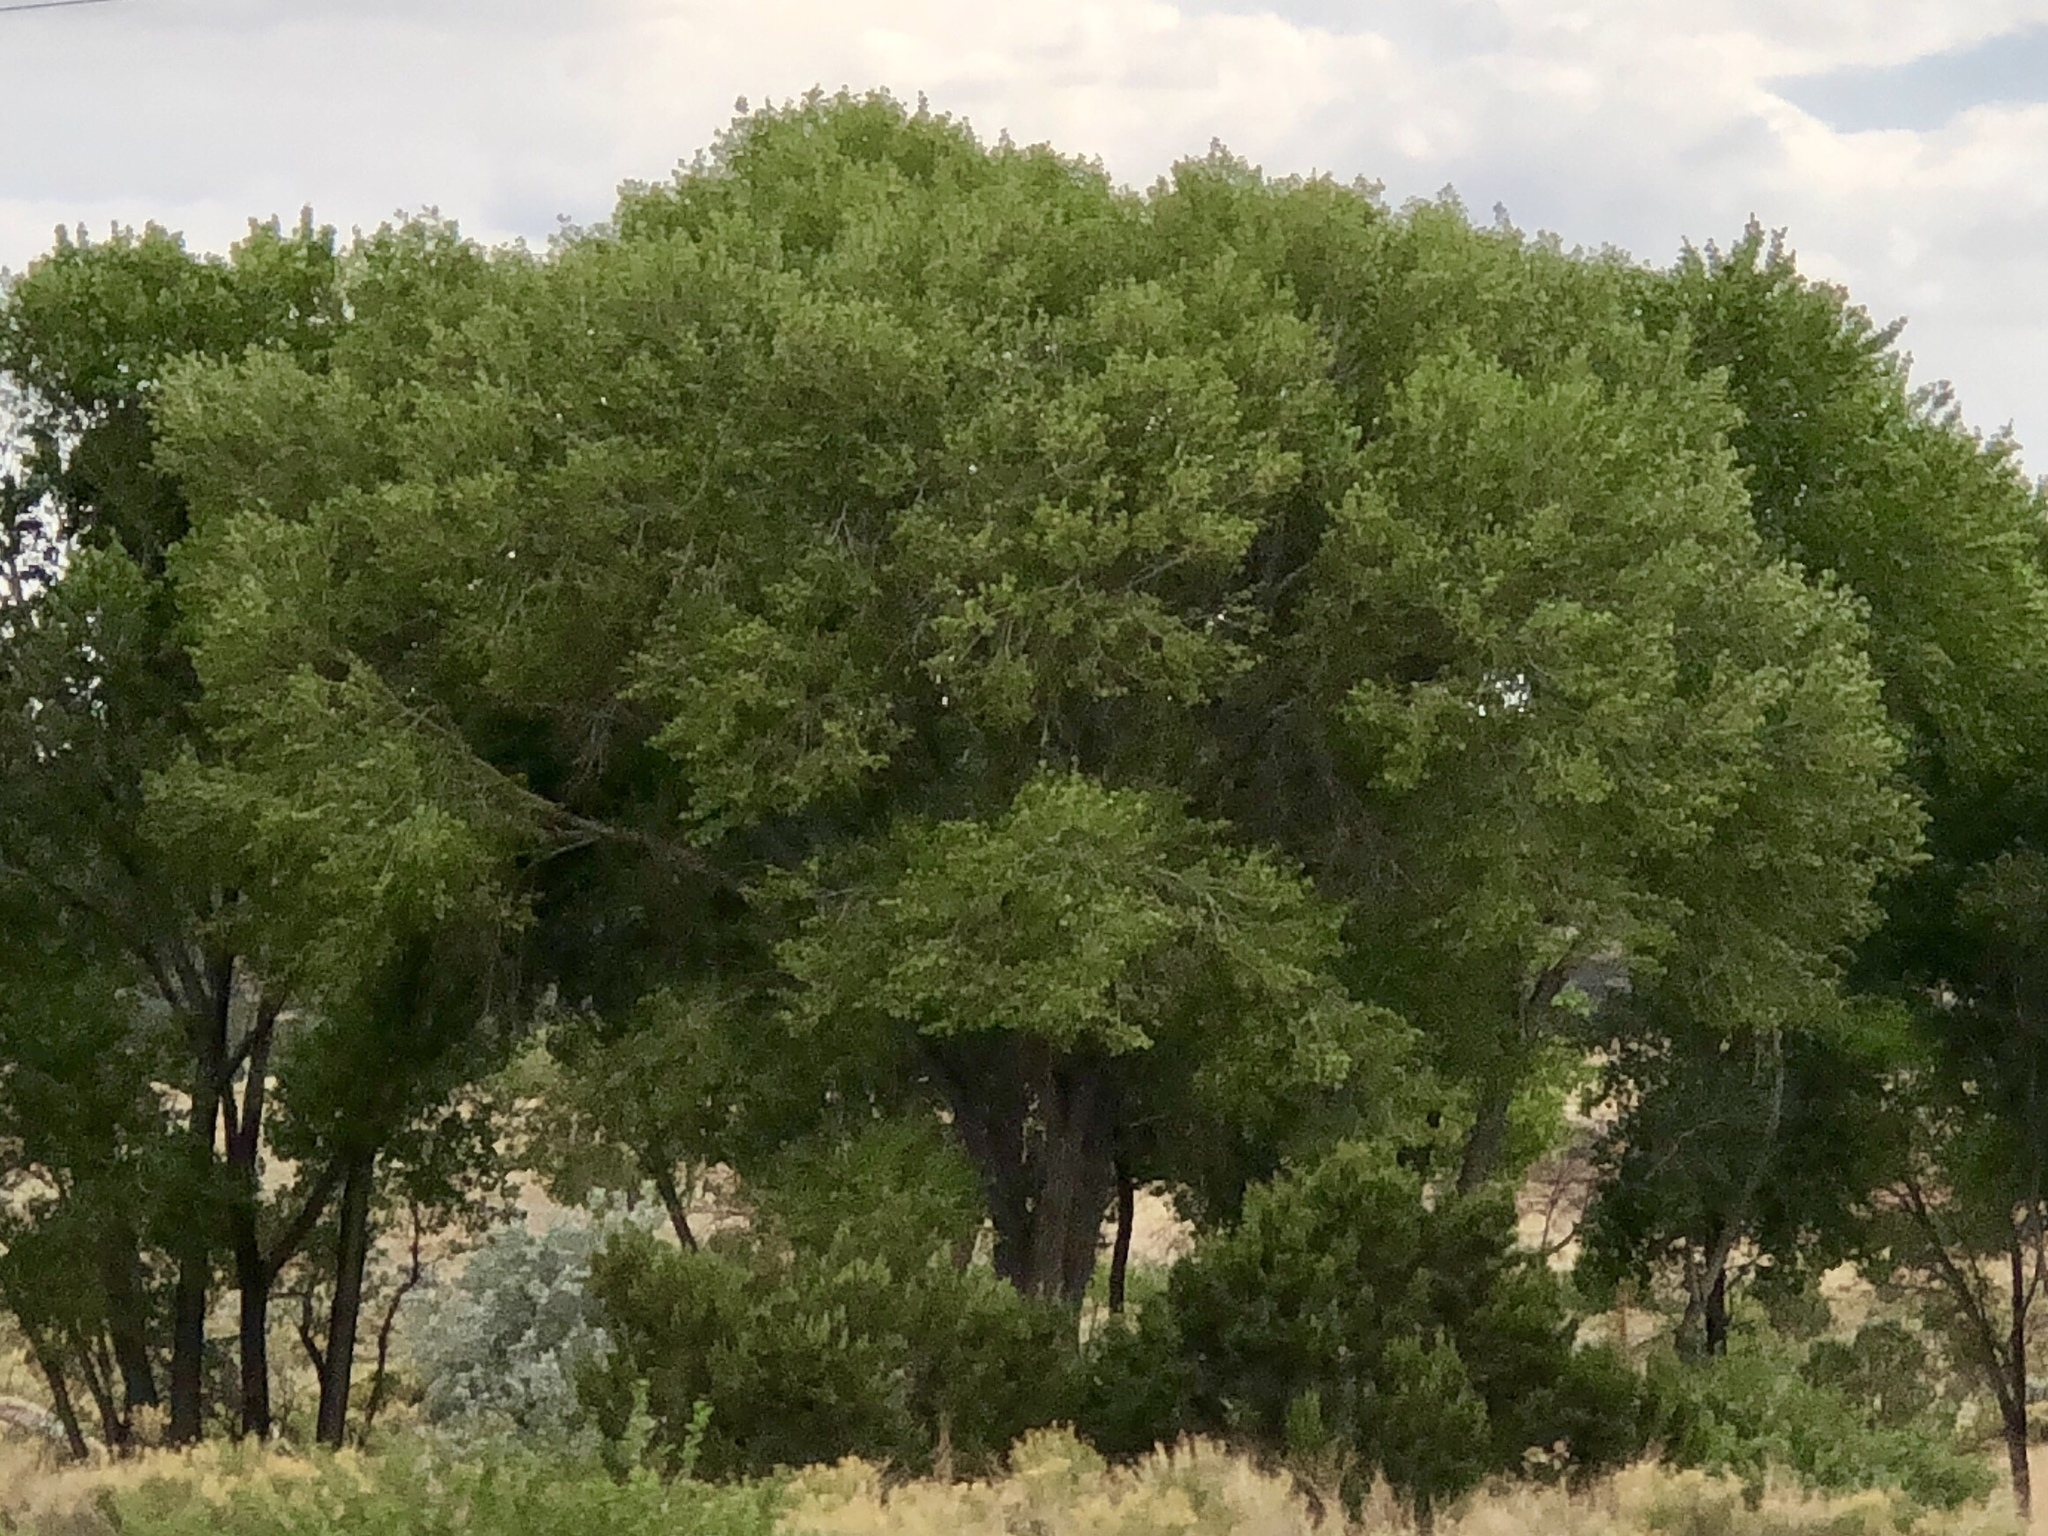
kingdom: Plantae
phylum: Tracheophyta
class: Magnoliopsida
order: Malpighiales
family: Salicaceae
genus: Populus
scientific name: Populus fremontii
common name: Fremont's cottonwood
